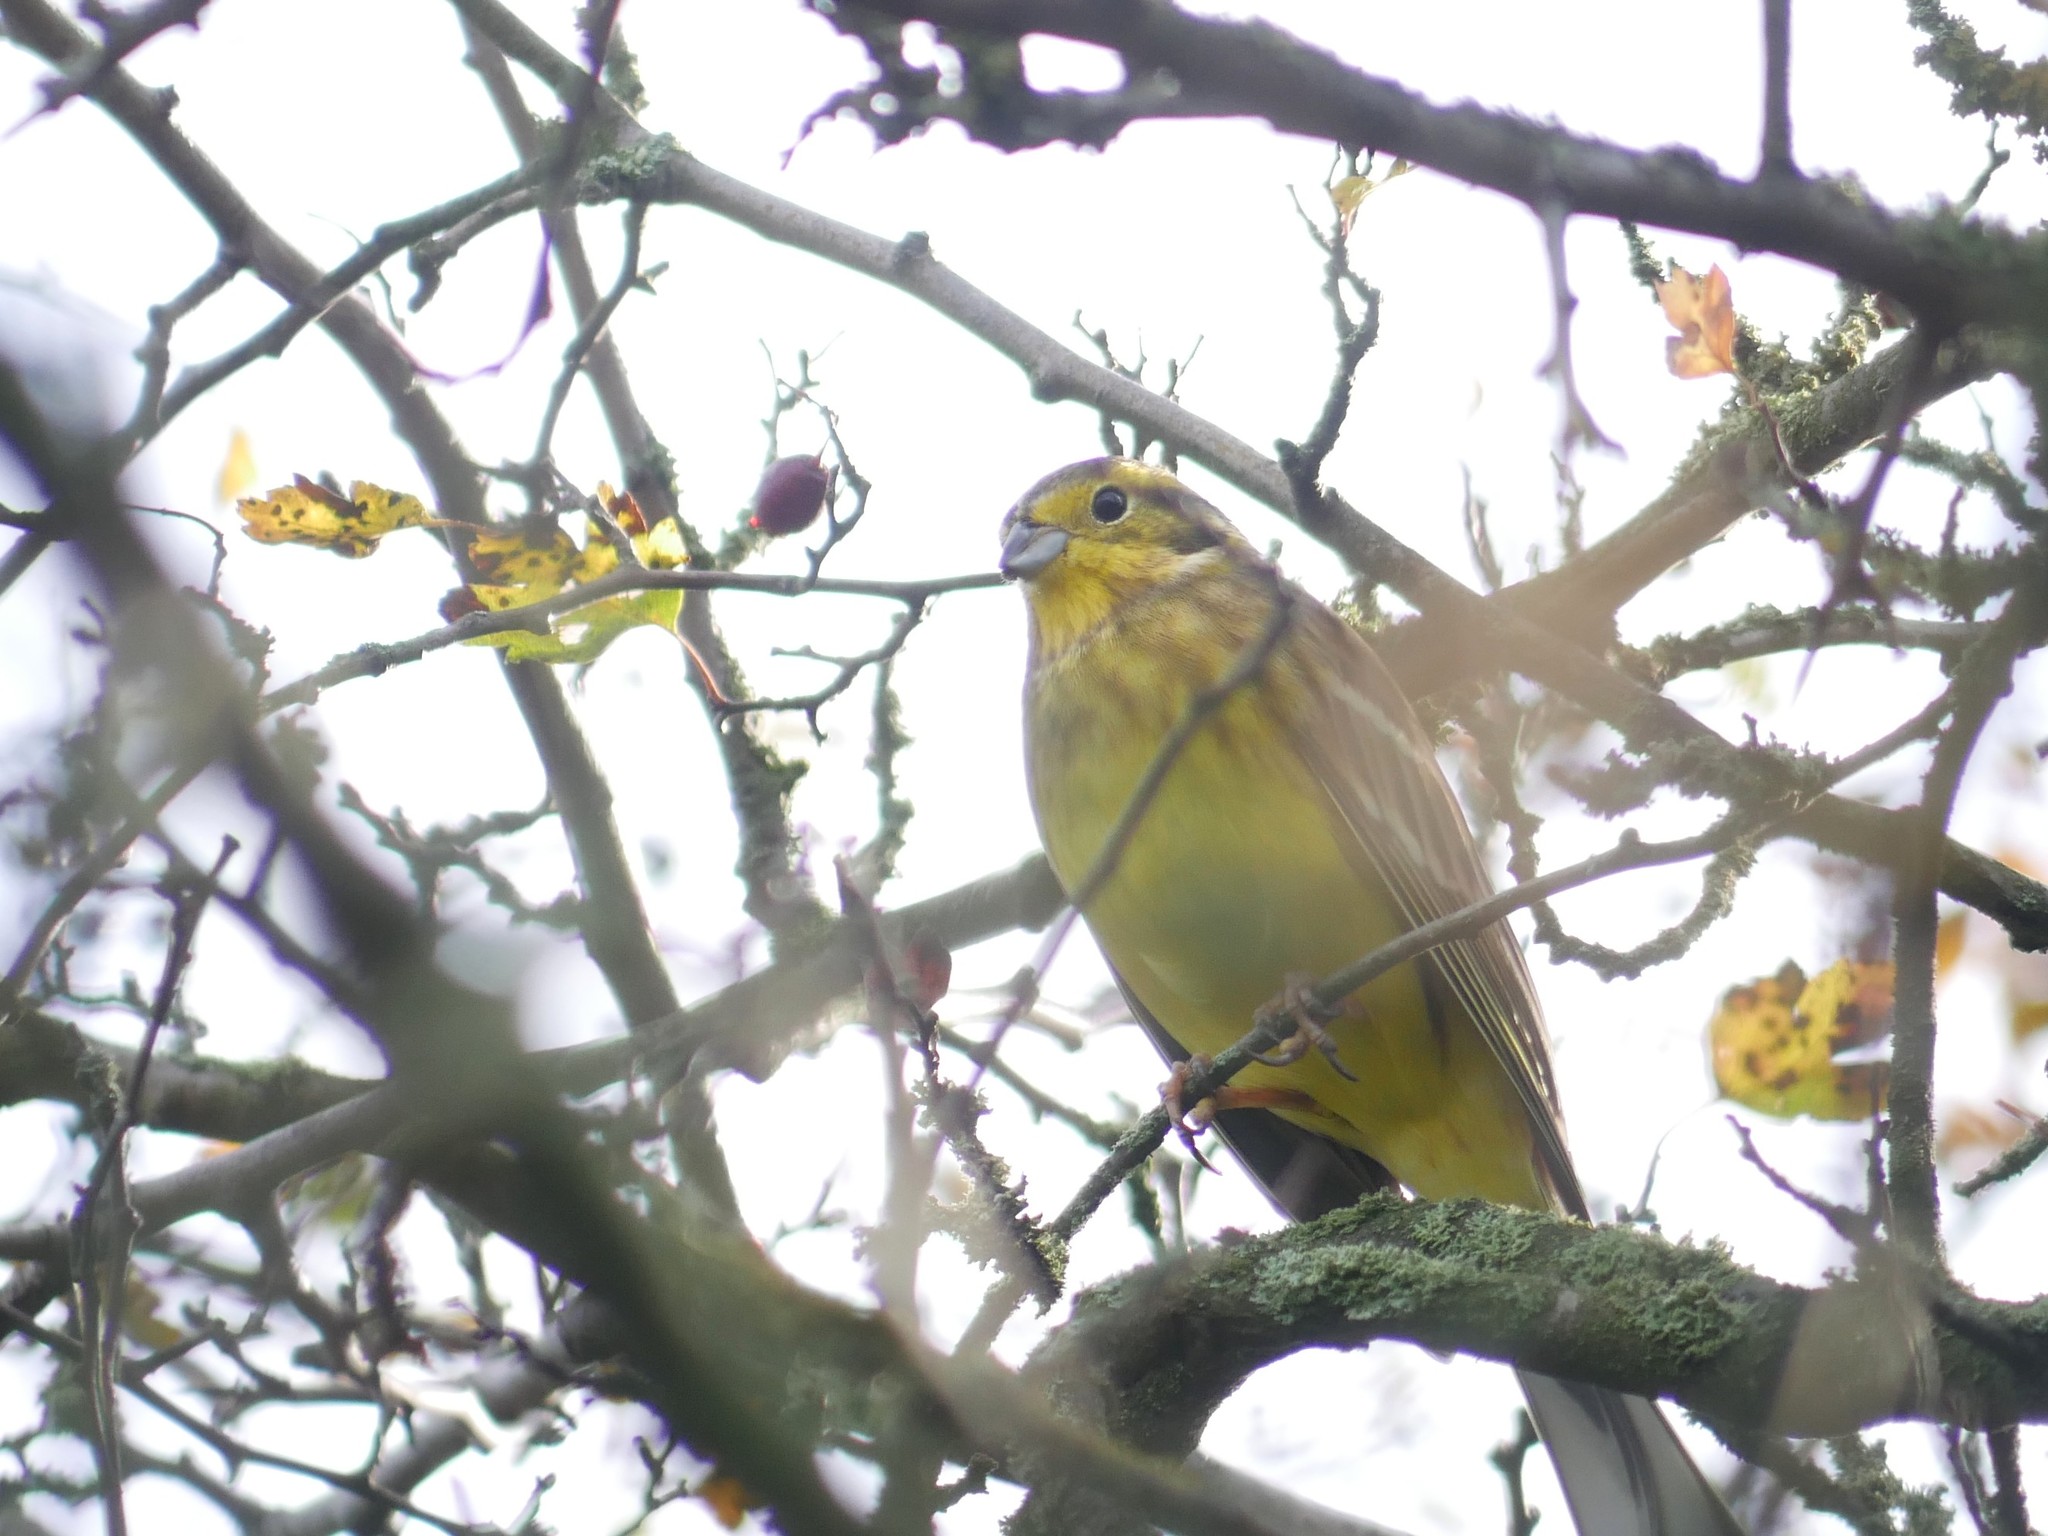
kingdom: Animalia
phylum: Chordata
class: Aves
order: Passeriformes
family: Emberizidae
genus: Emberiza
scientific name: Emberiza citrinella
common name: Yellowhammer
